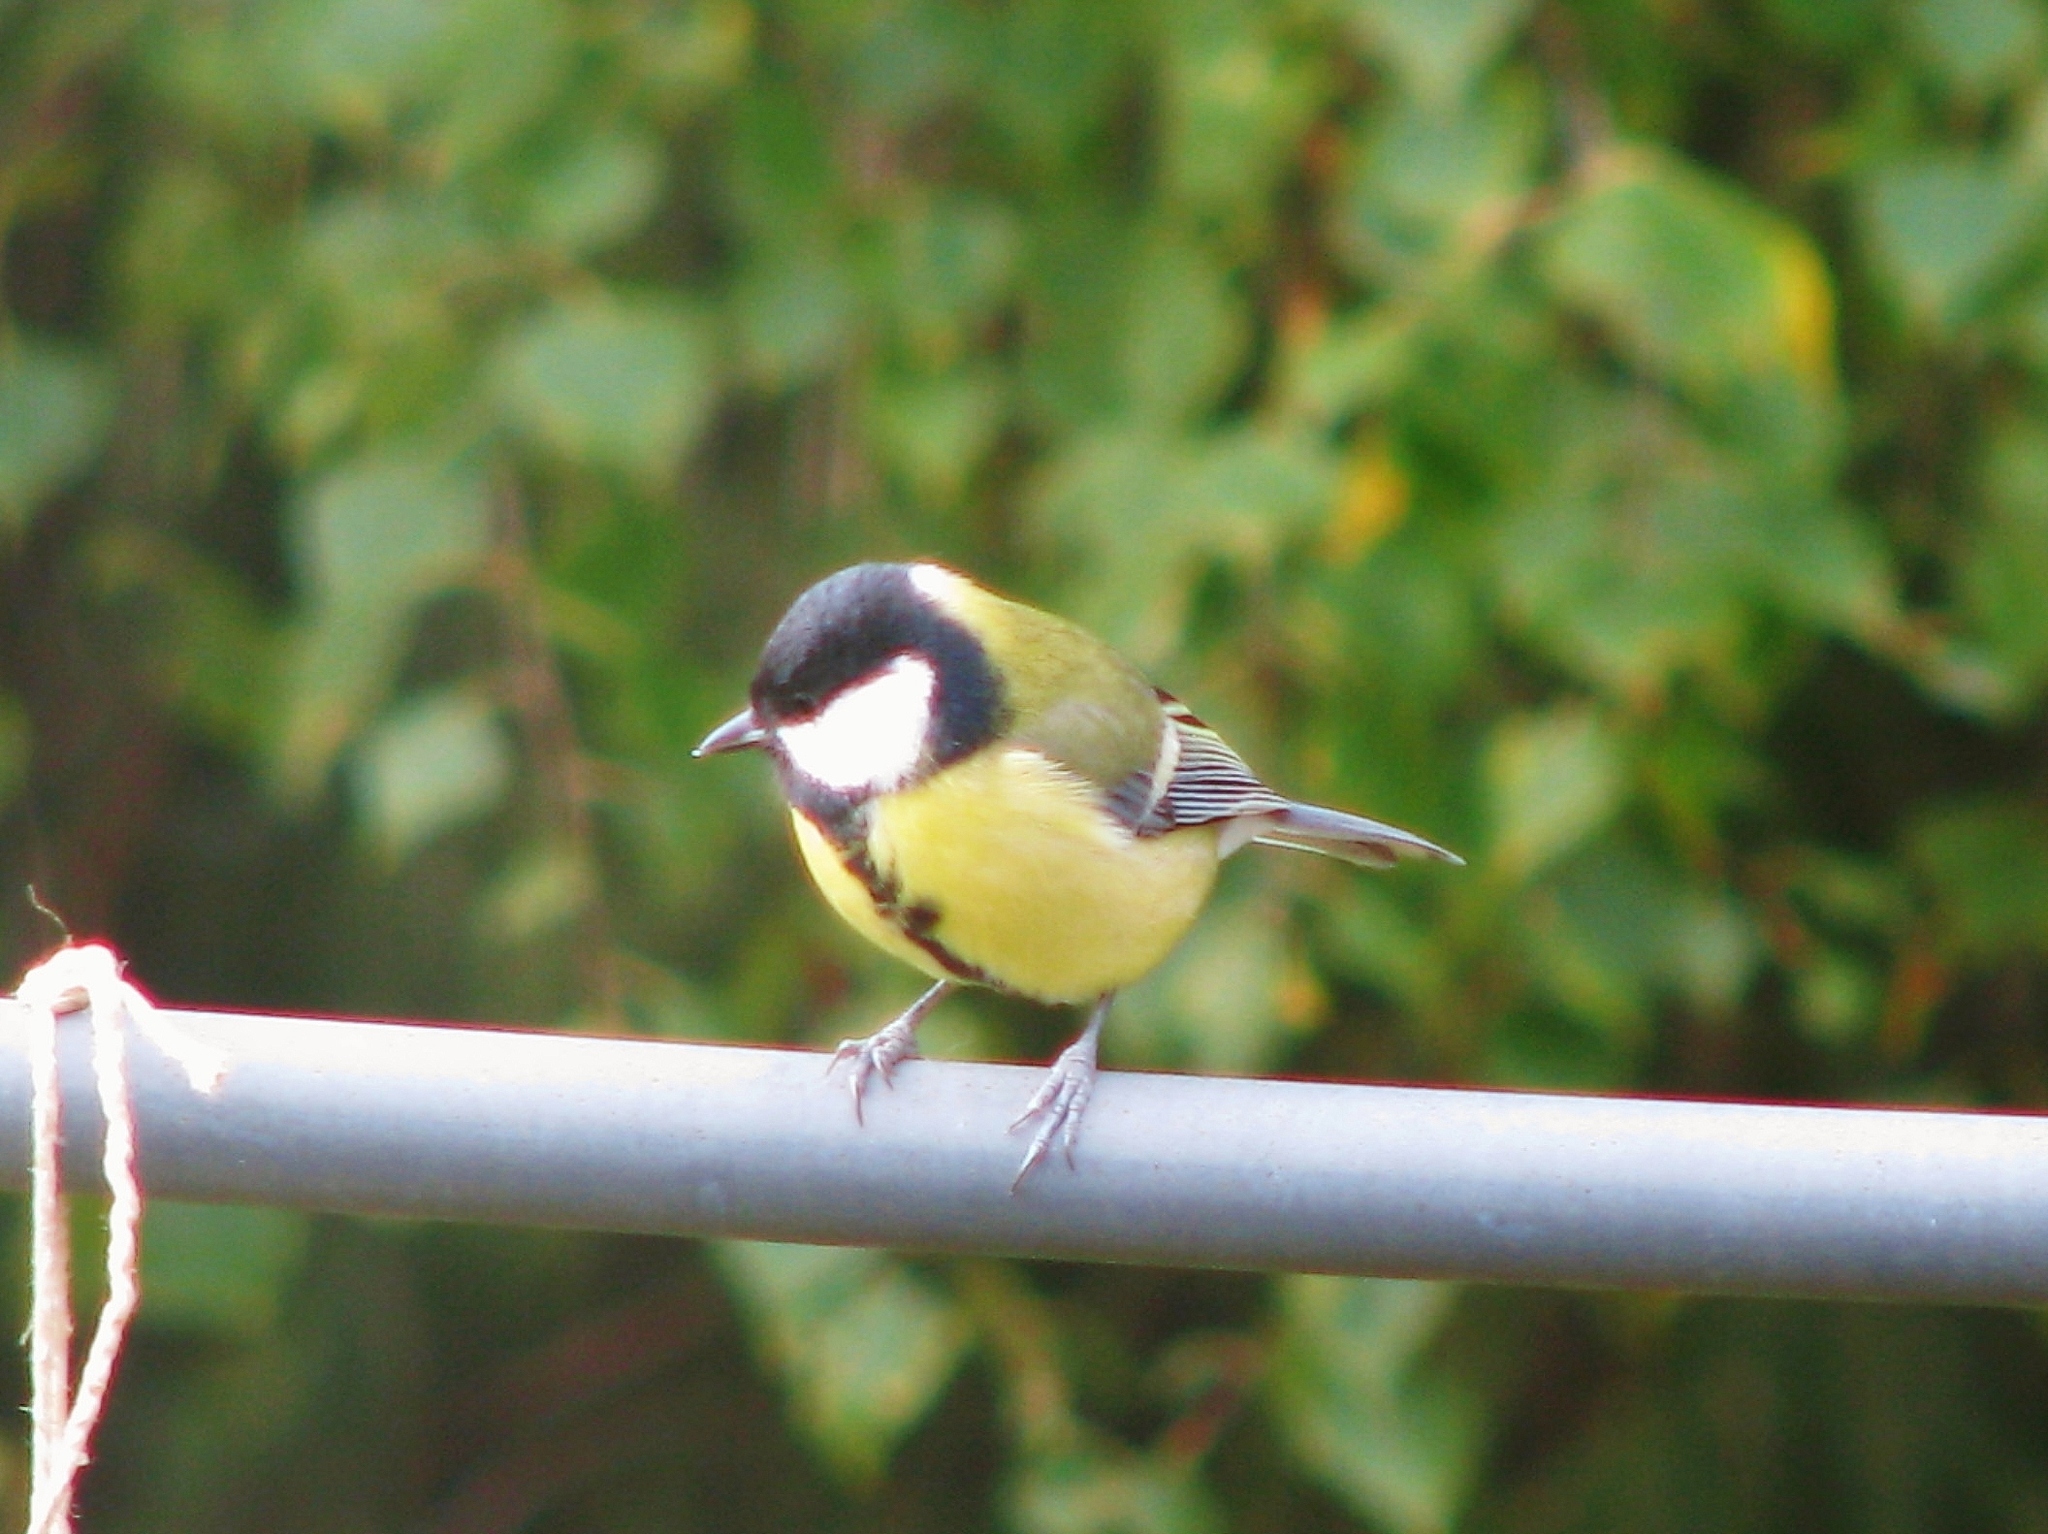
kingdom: Animalia
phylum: Chordata
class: Aves
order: Passeriformes
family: Paridae
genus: Parus
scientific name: Parus major
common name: Great tit
